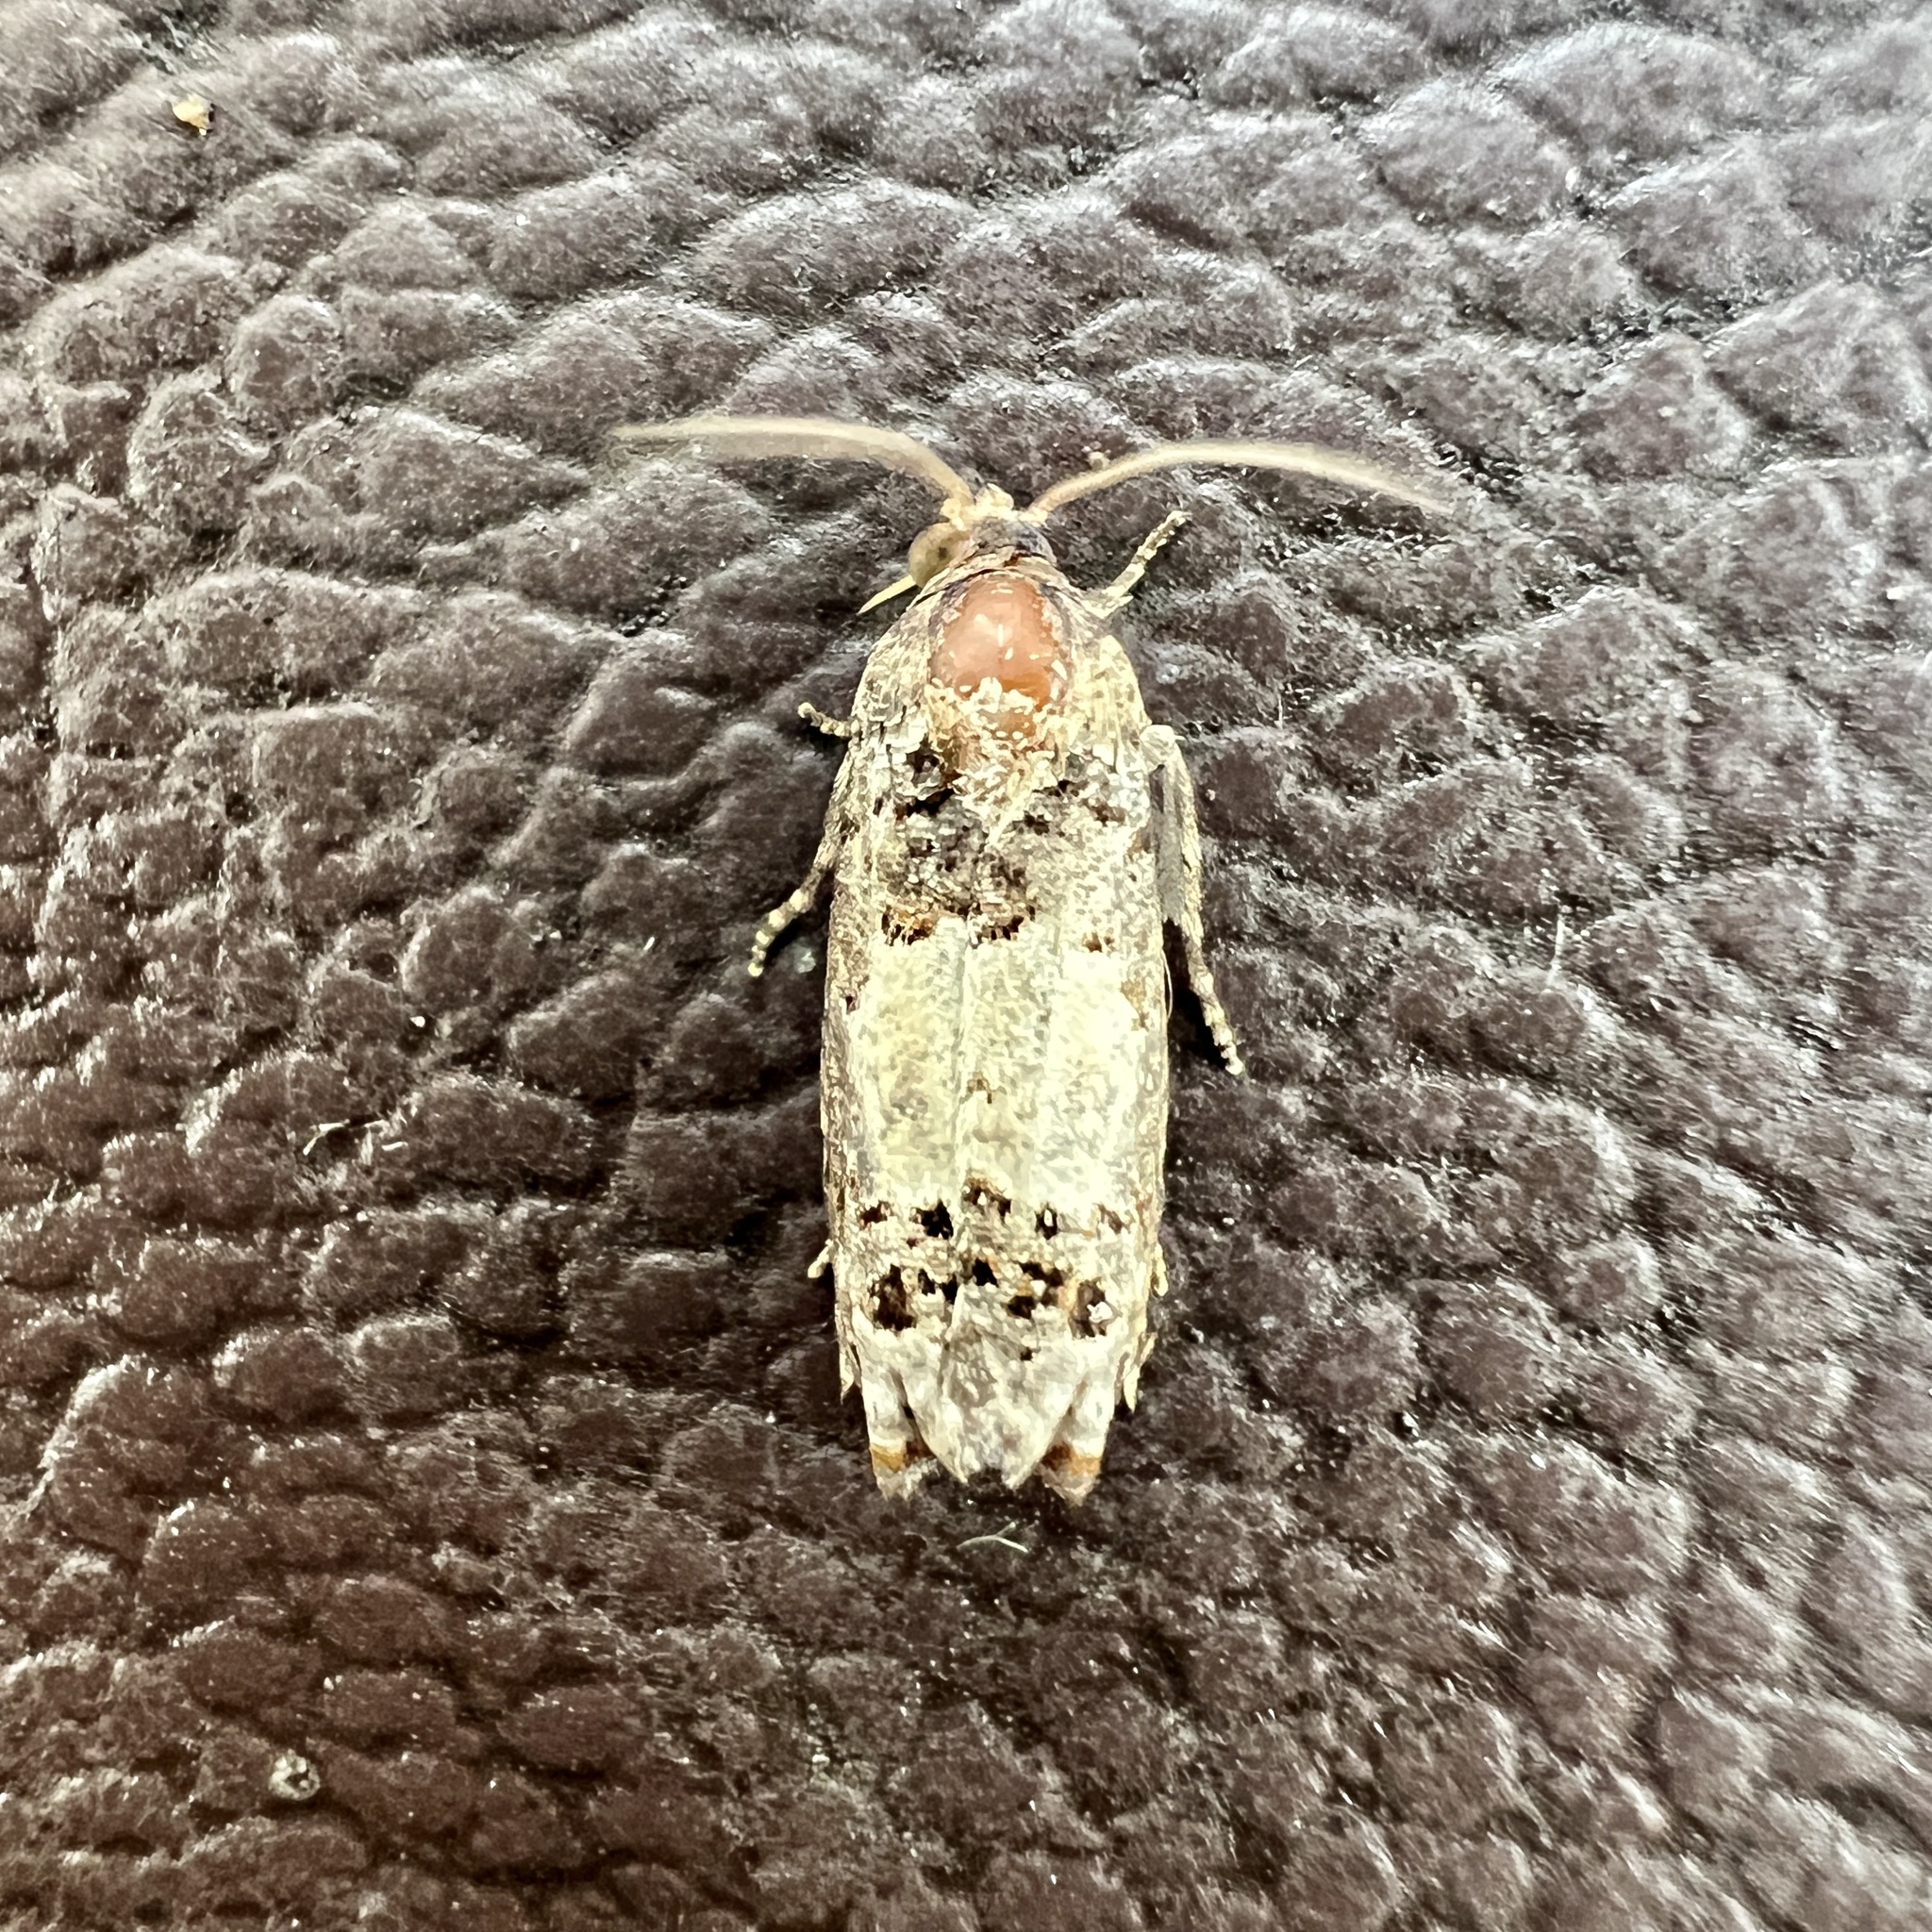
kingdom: Animalia
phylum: Arthropoda
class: Insecta
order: Lepidoptera
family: Tortricidae
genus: Epiblema
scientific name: Epiblema carolinana
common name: Gray-blotched epiblema moth
